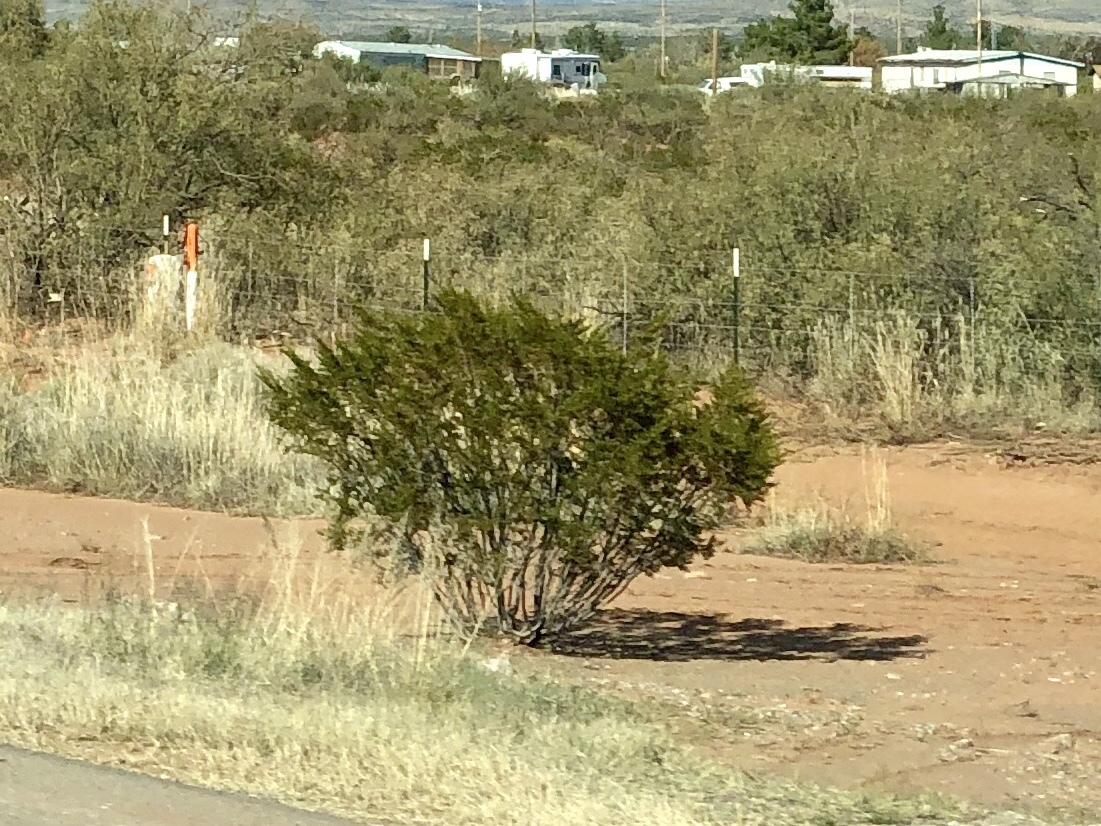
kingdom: Plantae
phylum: Tracheophyta
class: Magnoliopsida
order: Zygophyllales
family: Zygophyllaceae
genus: Larrea
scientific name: Larrea tridentata
